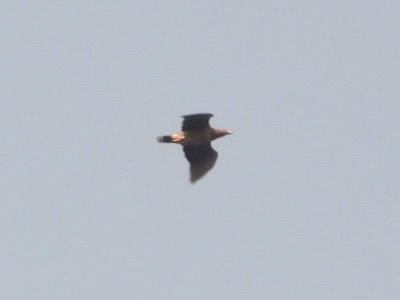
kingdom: Animalia
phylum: Chordata
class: Aves
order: Columbiformes
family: Columbidae
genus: Patagioenas
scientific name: Patagioenas fasciata
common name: Band-tailed pigeon
